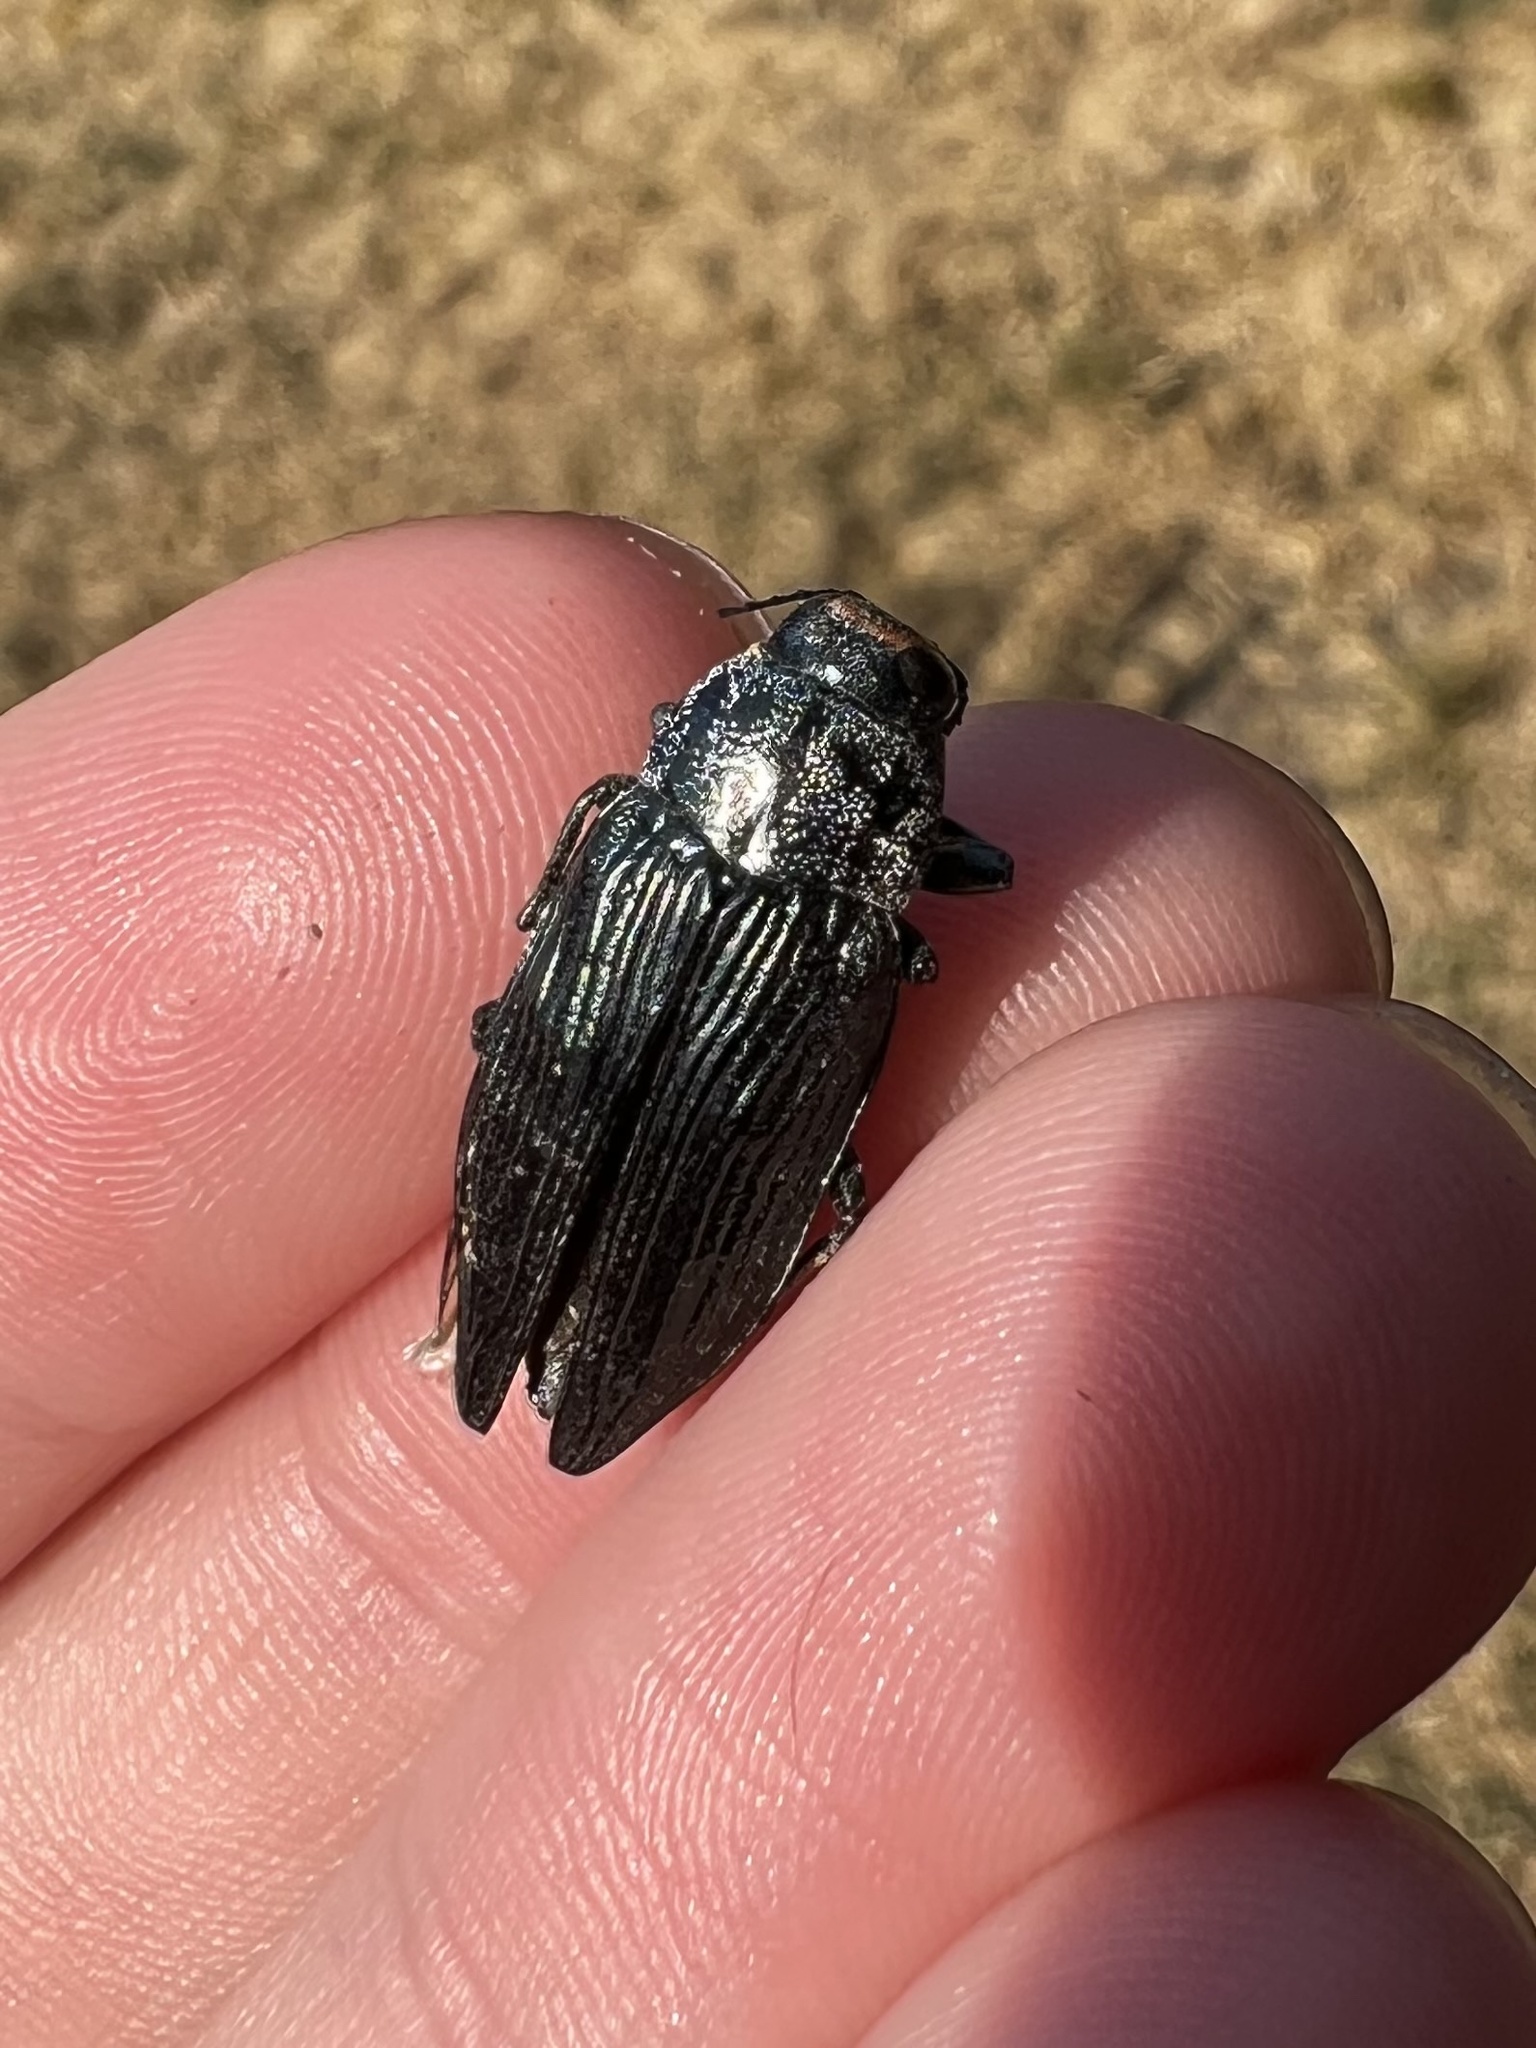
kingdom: Animalia
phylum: Arthropoda
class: Insecta
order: Coleoptera
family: Buprestidae
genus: Buprestis
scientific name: Buprestis lyrata
